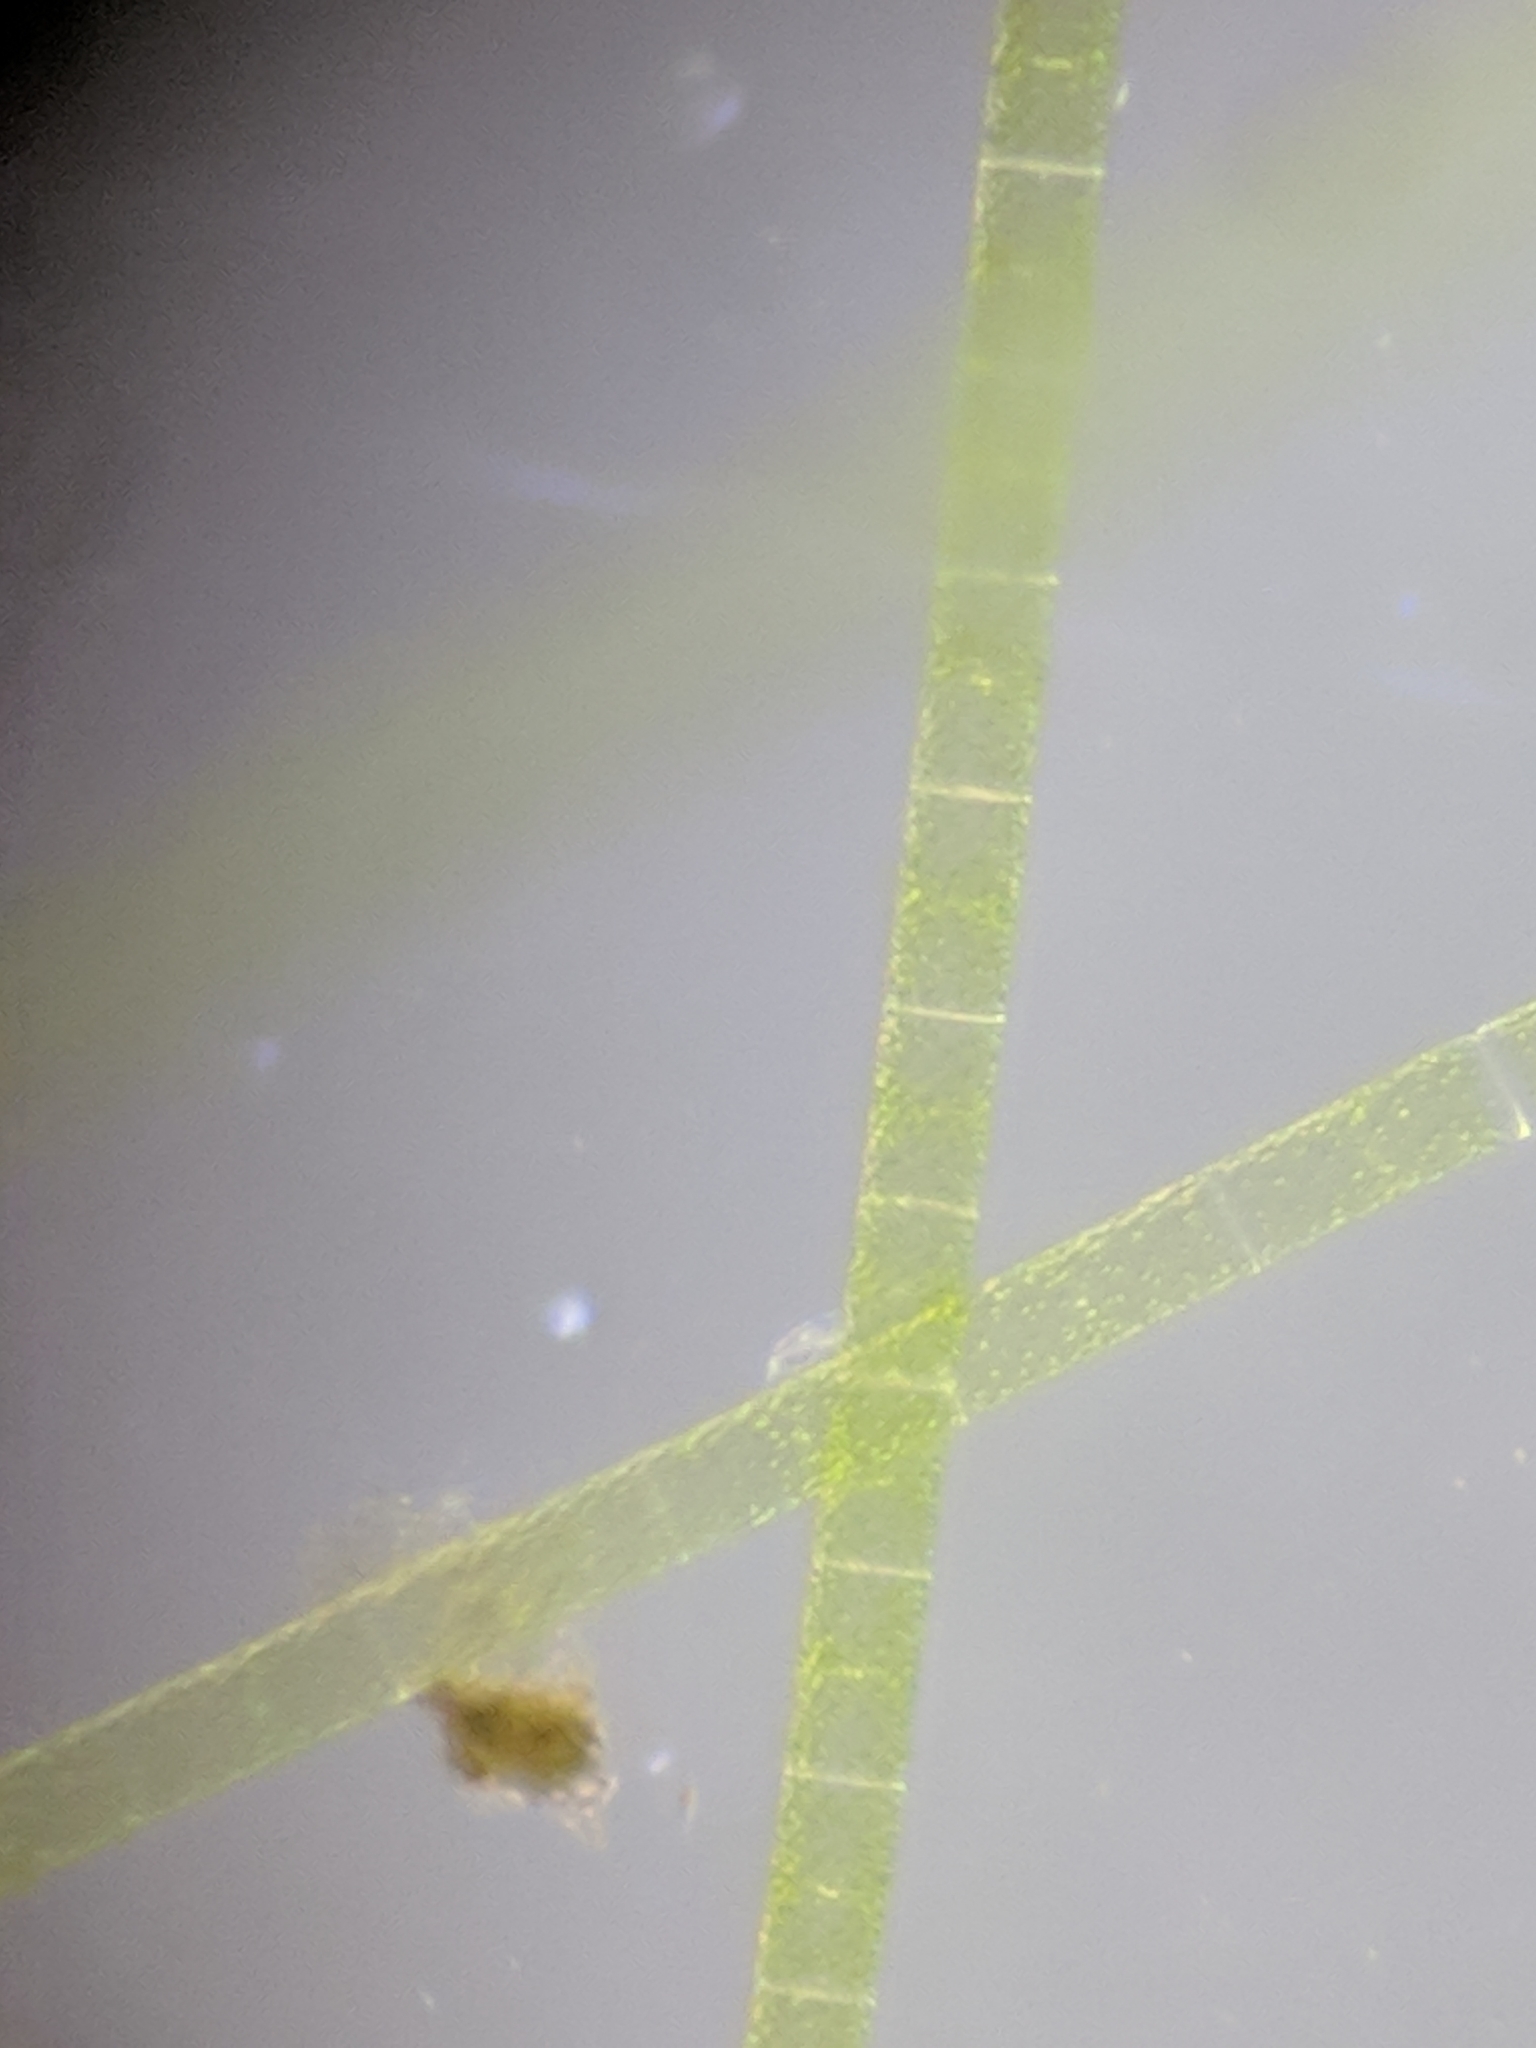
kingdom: Plantae
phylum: Charophyta
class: Zygnematophyceae
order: Zygnematales
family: Zygnemataceae
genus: Spirogyra
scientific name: Spirogyra
